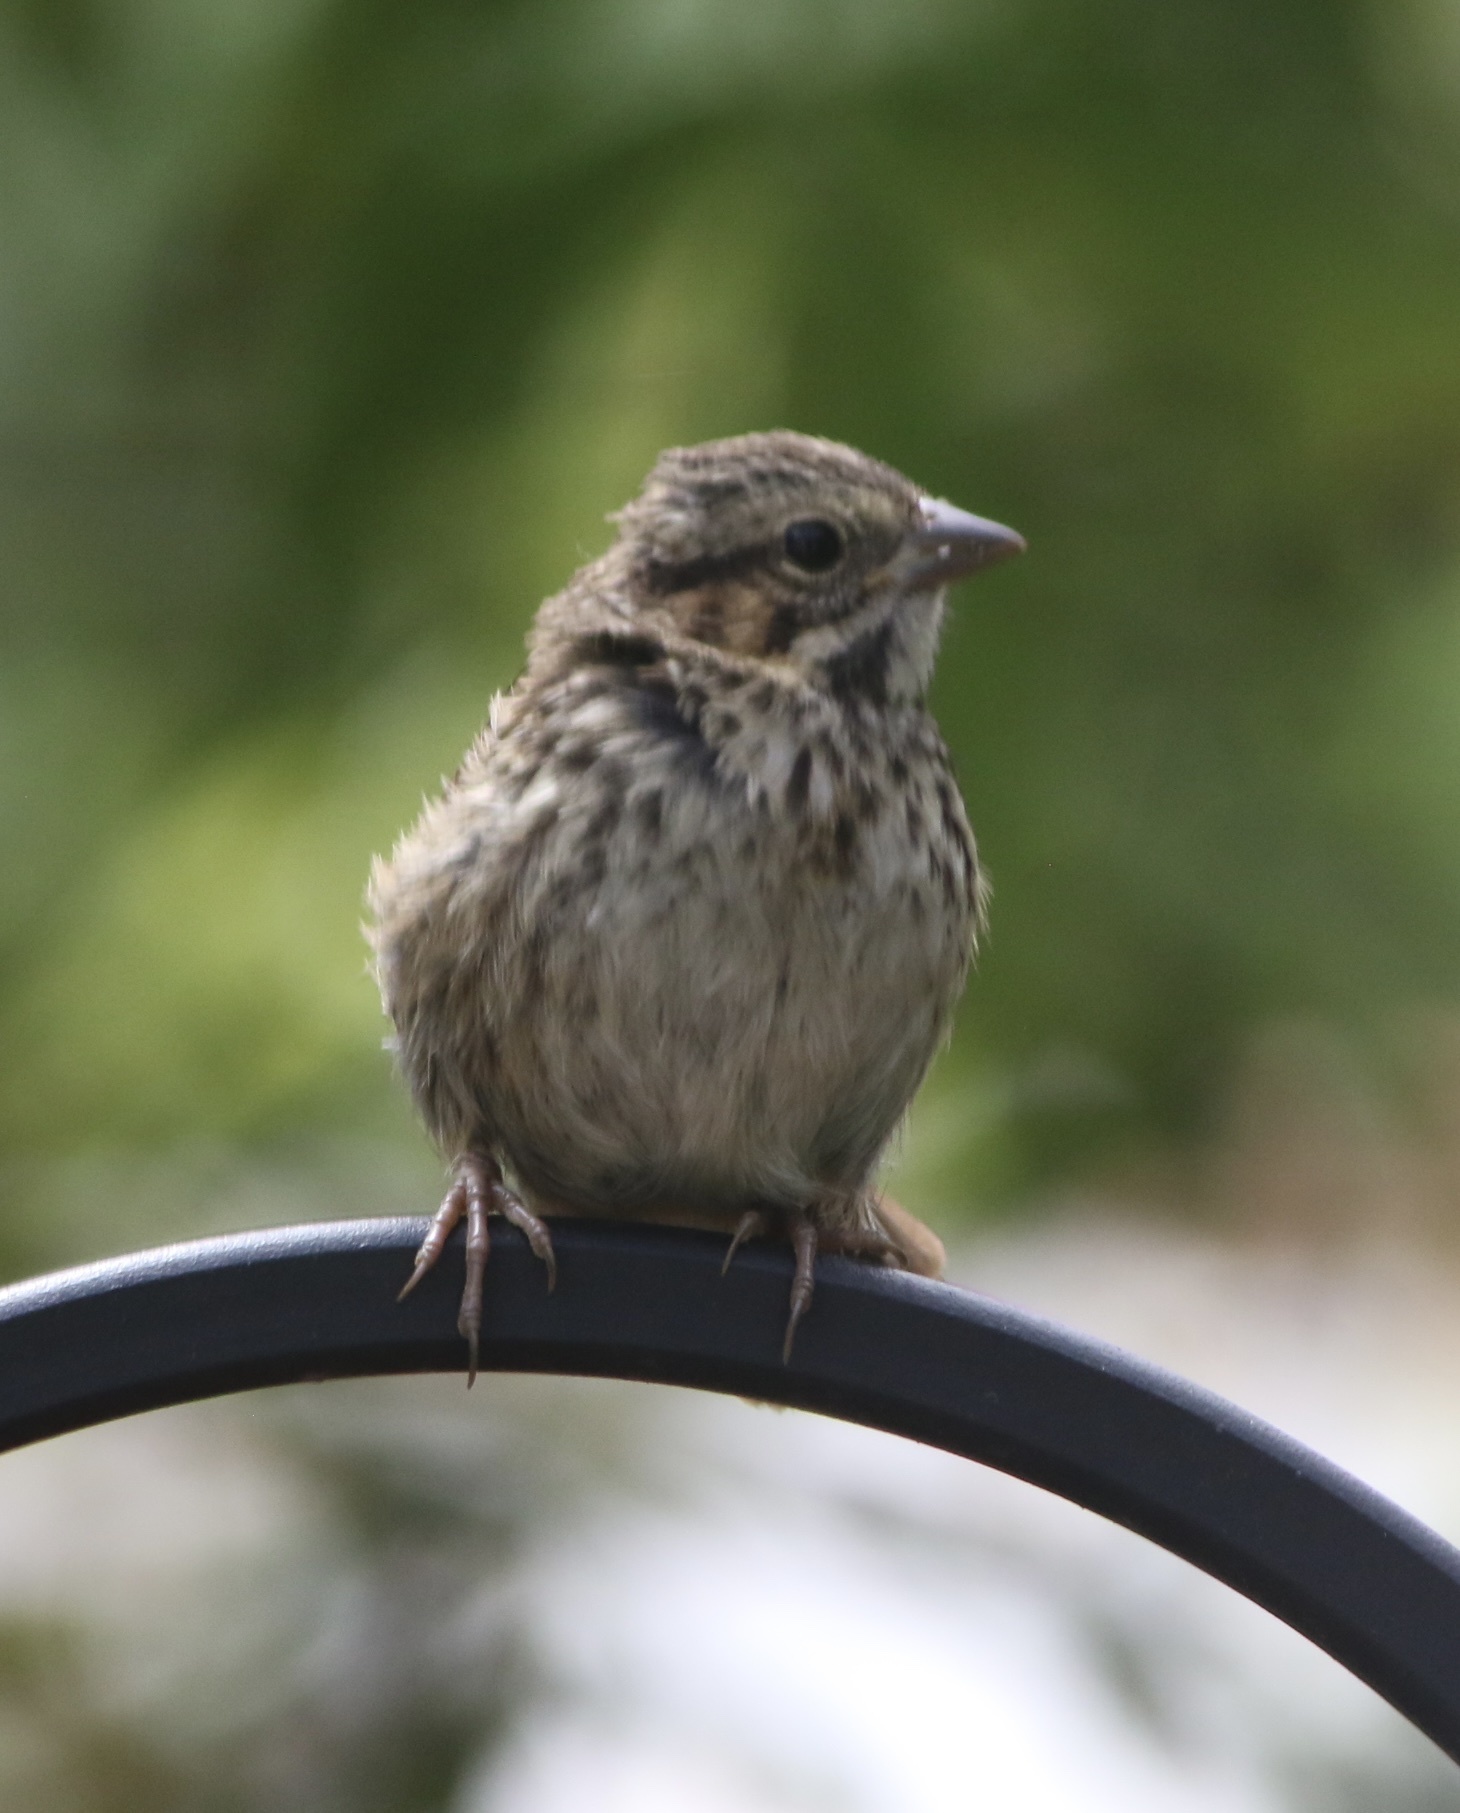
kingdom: Animalia
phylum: Chordata
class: Aves
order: Passeriformes
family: Passerellidae
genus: Melospiza
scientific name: Melospiza melodia
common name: Song sparrow
